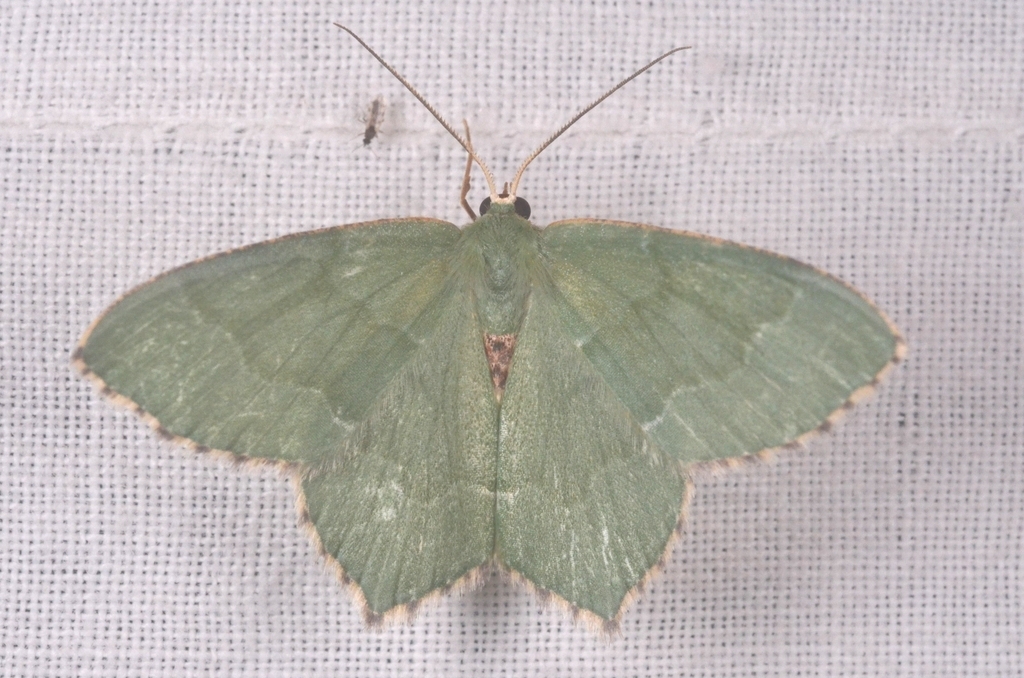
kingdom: Animalia
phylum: Arthropoda
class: Insecta
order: Lepidoptera
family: Geometridae
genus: Hemithea
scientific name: Hemithea aestivaria
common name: Common emerald
